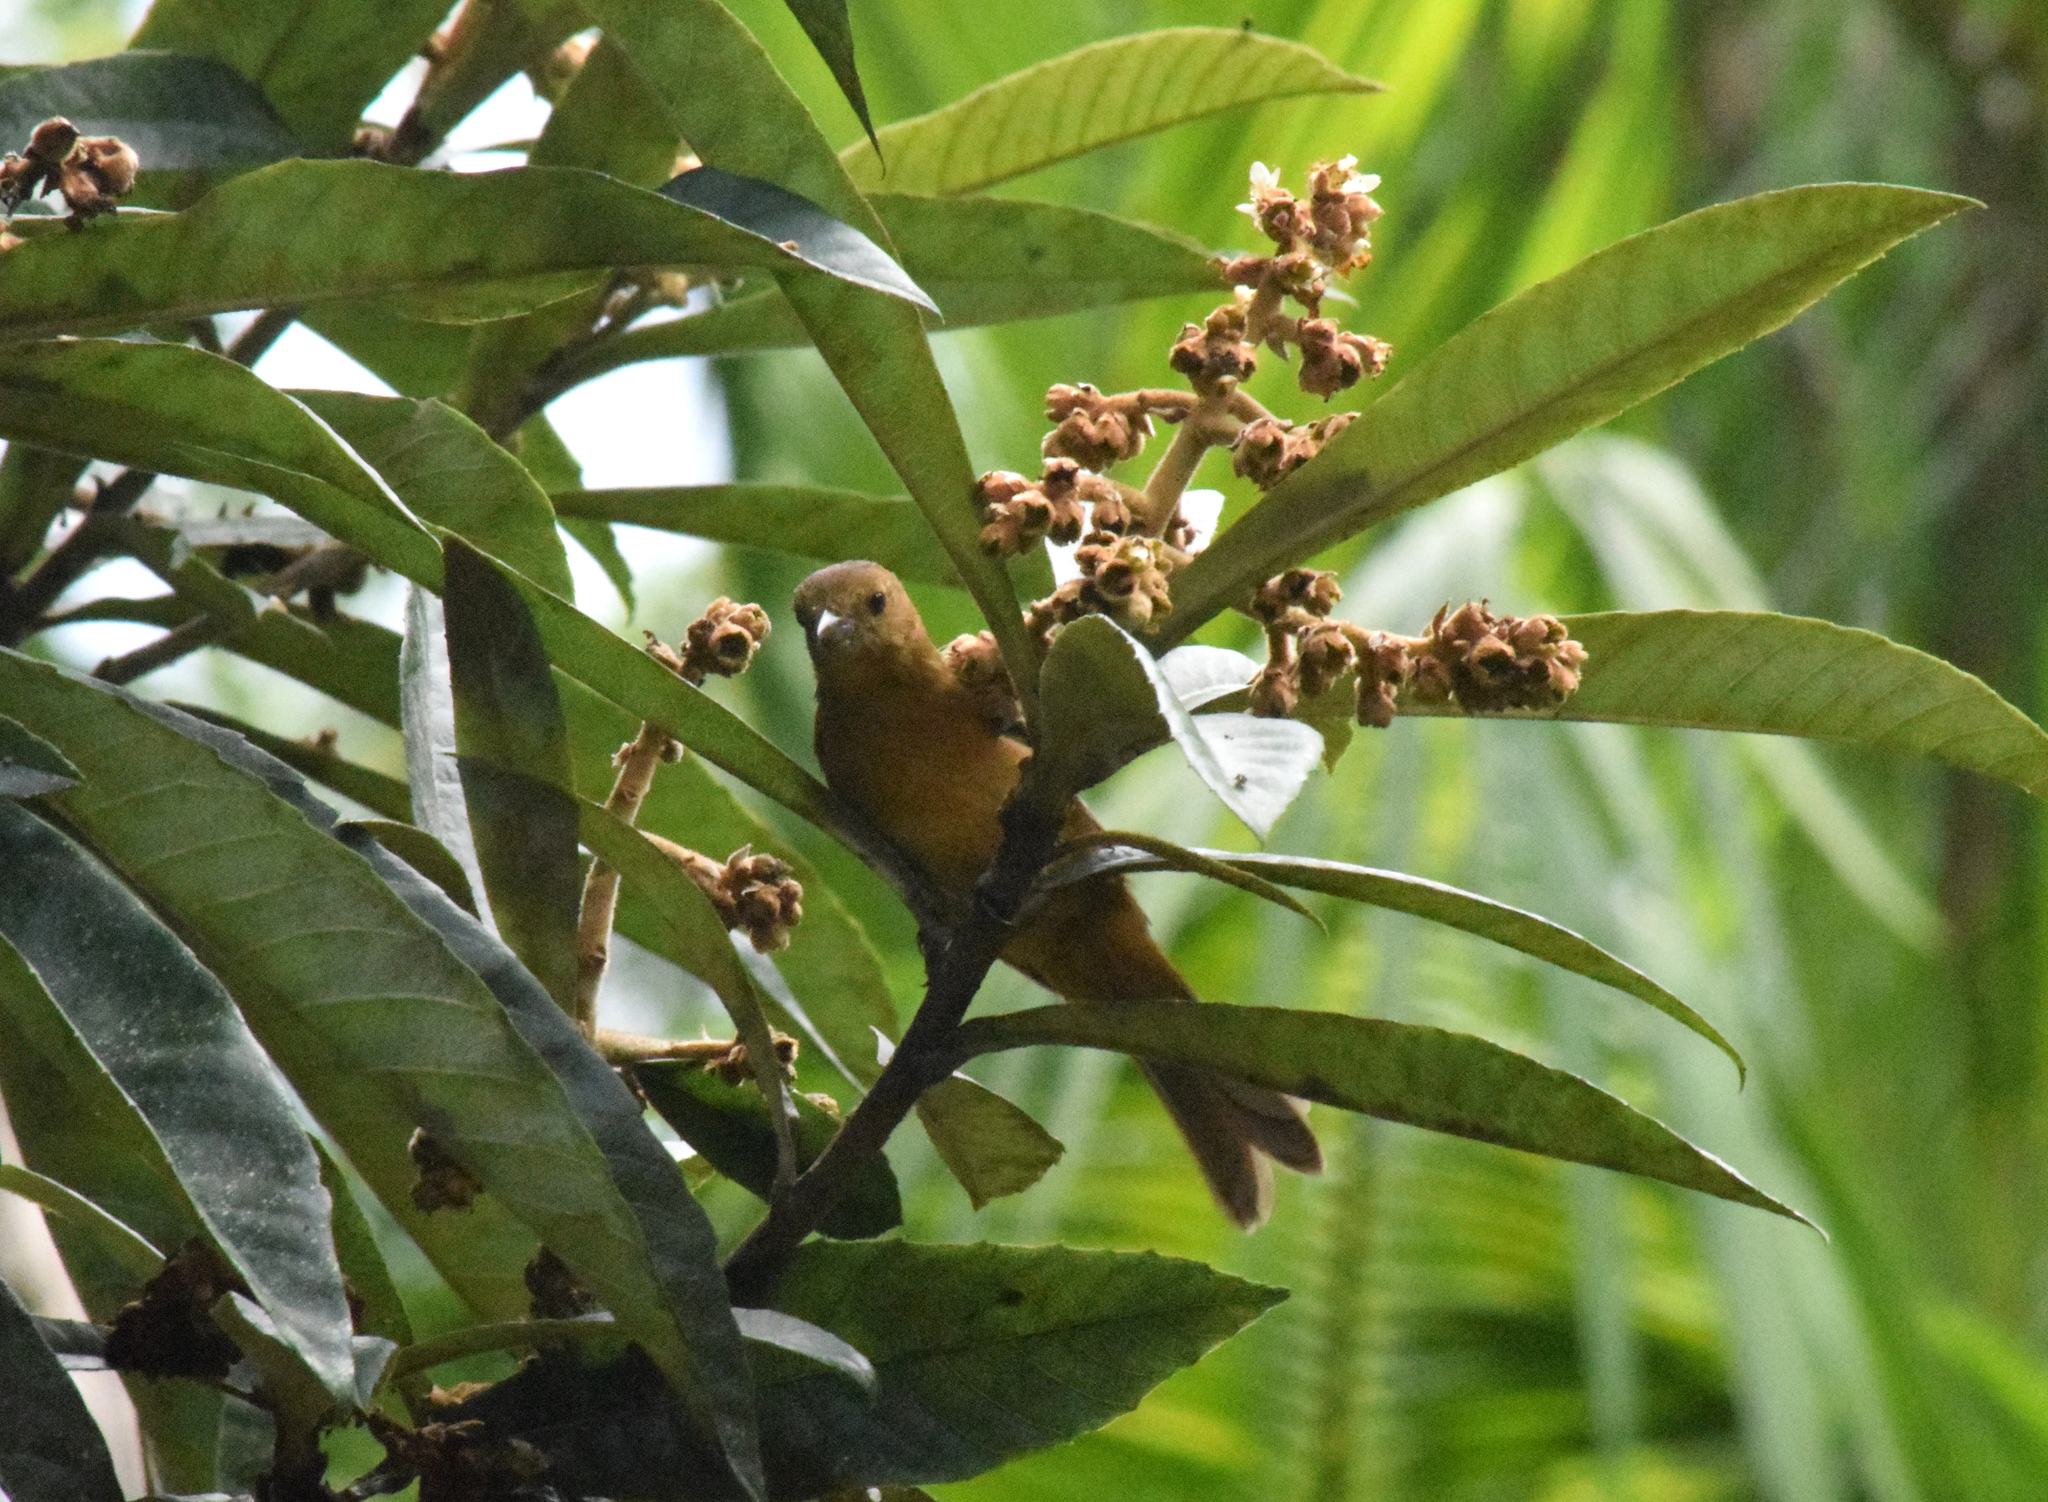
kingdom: Animalia
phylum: Chordata
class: Aves
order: Passeriformes
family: Thraupidae
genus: Tachyphonus
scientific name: Tachyphonus coronatus
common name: Ruby-crowned tanager
